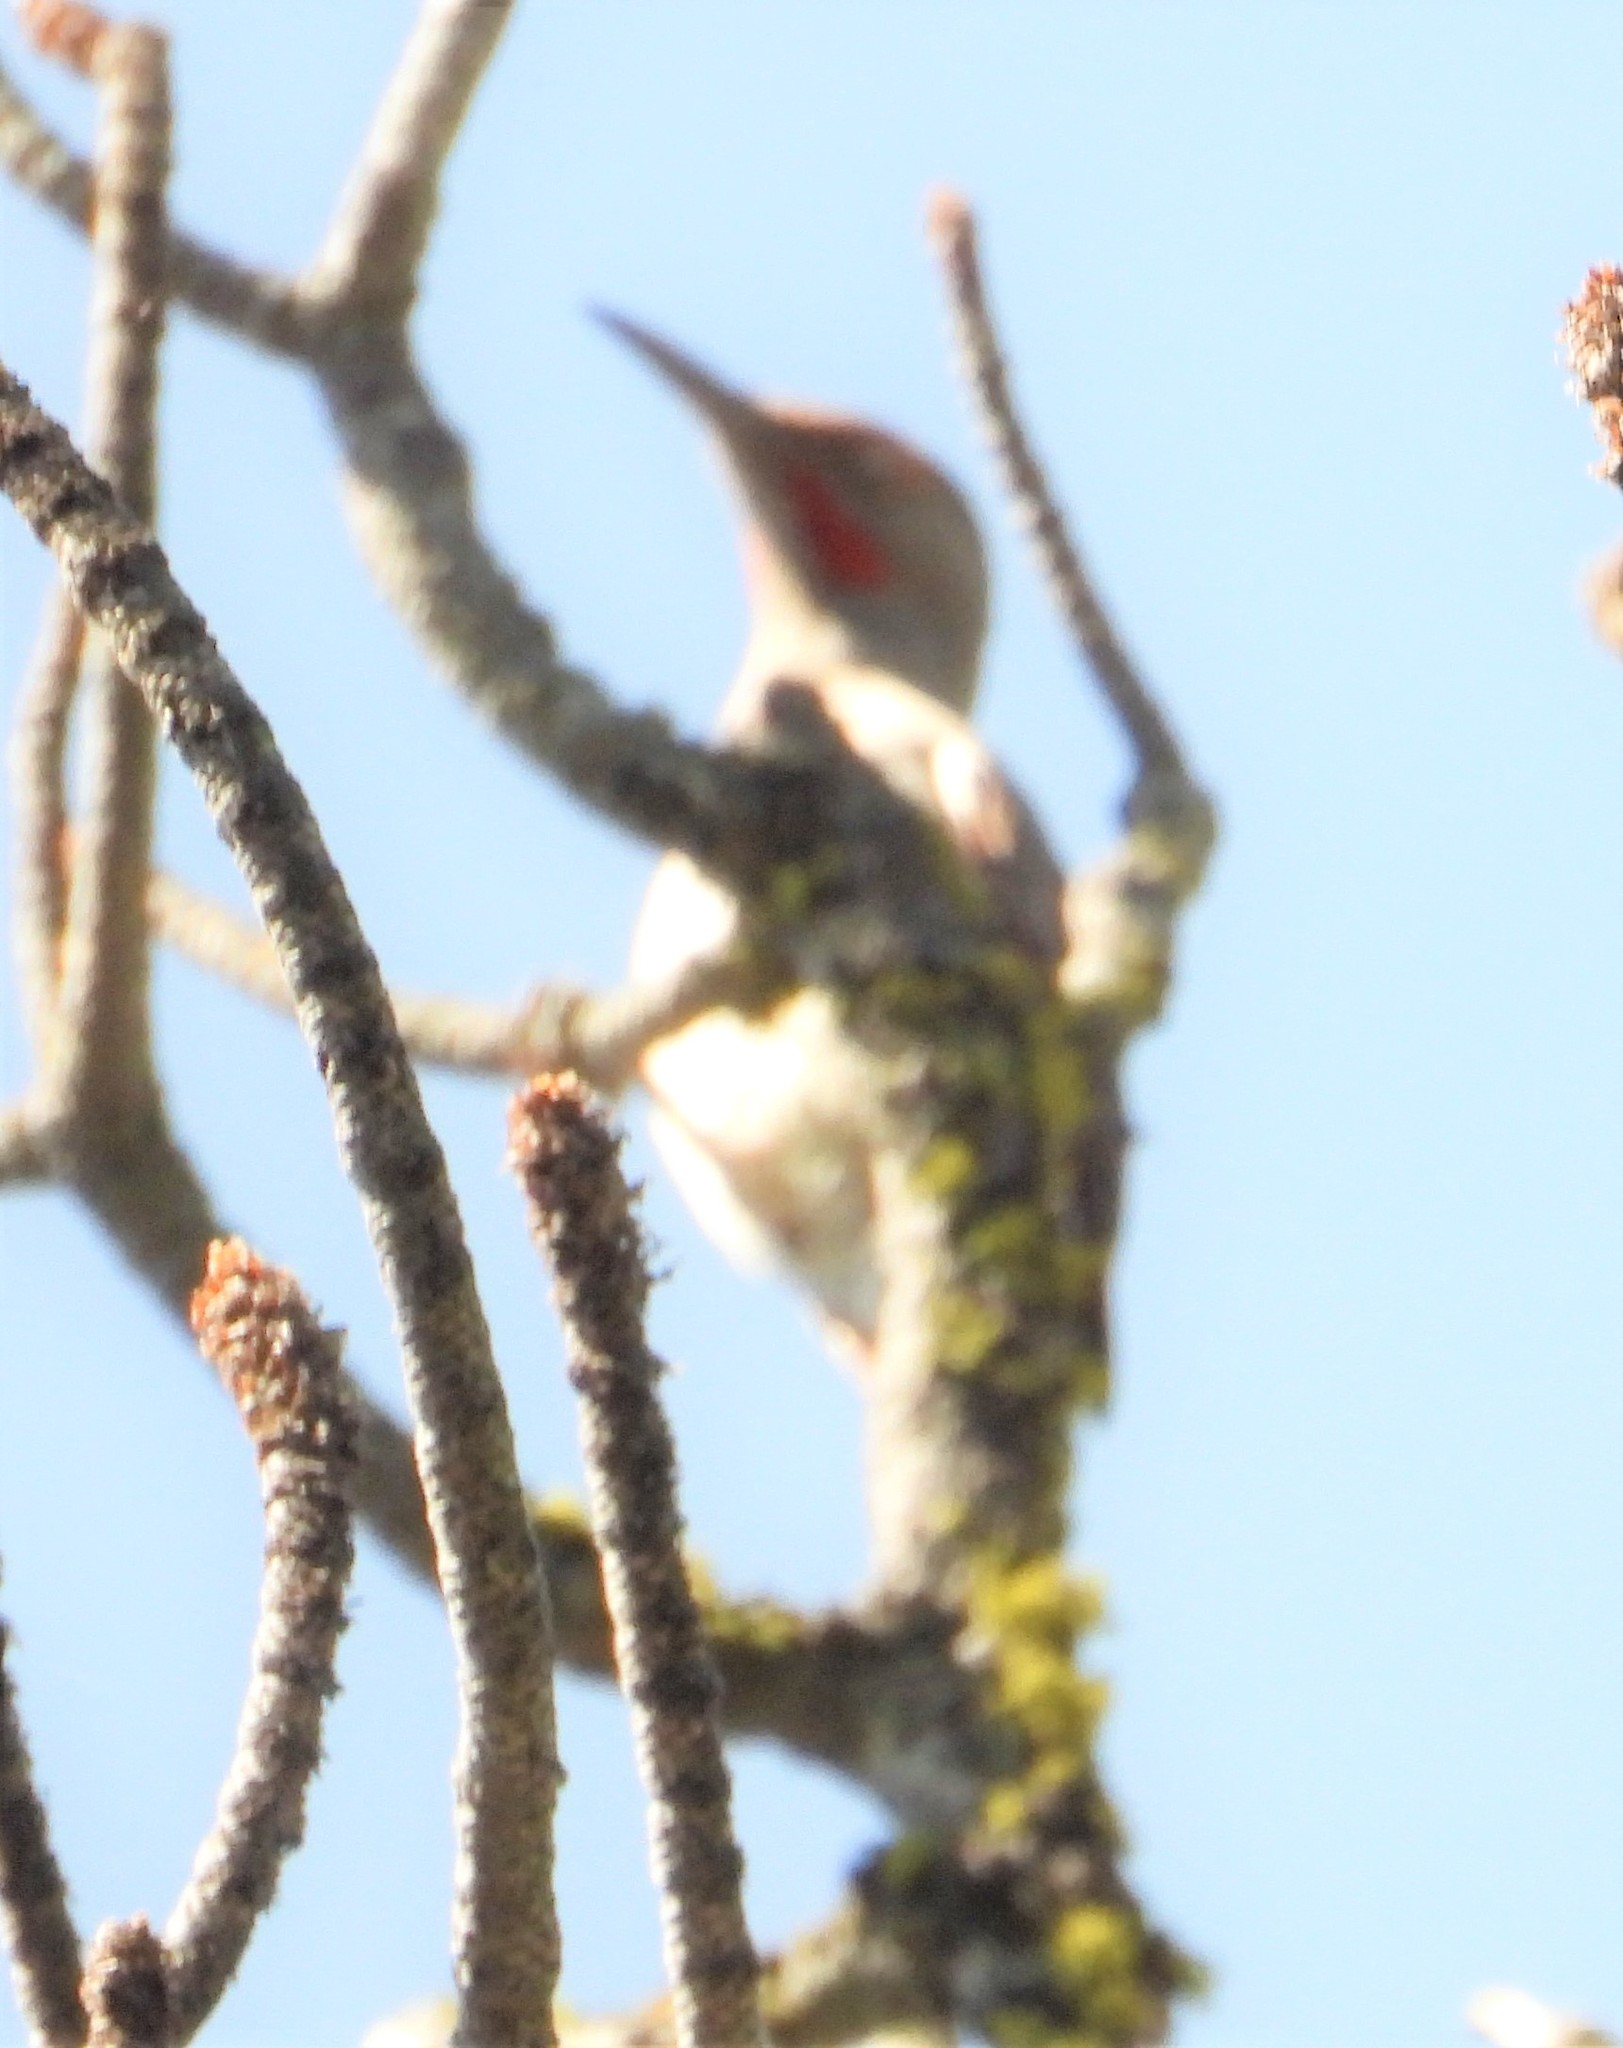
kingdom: Animalia
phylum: Chordata
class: Aves
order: Piciformes
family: Picidae
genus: Colaptes
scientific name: Colaptes auratus
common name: Northern flicker
